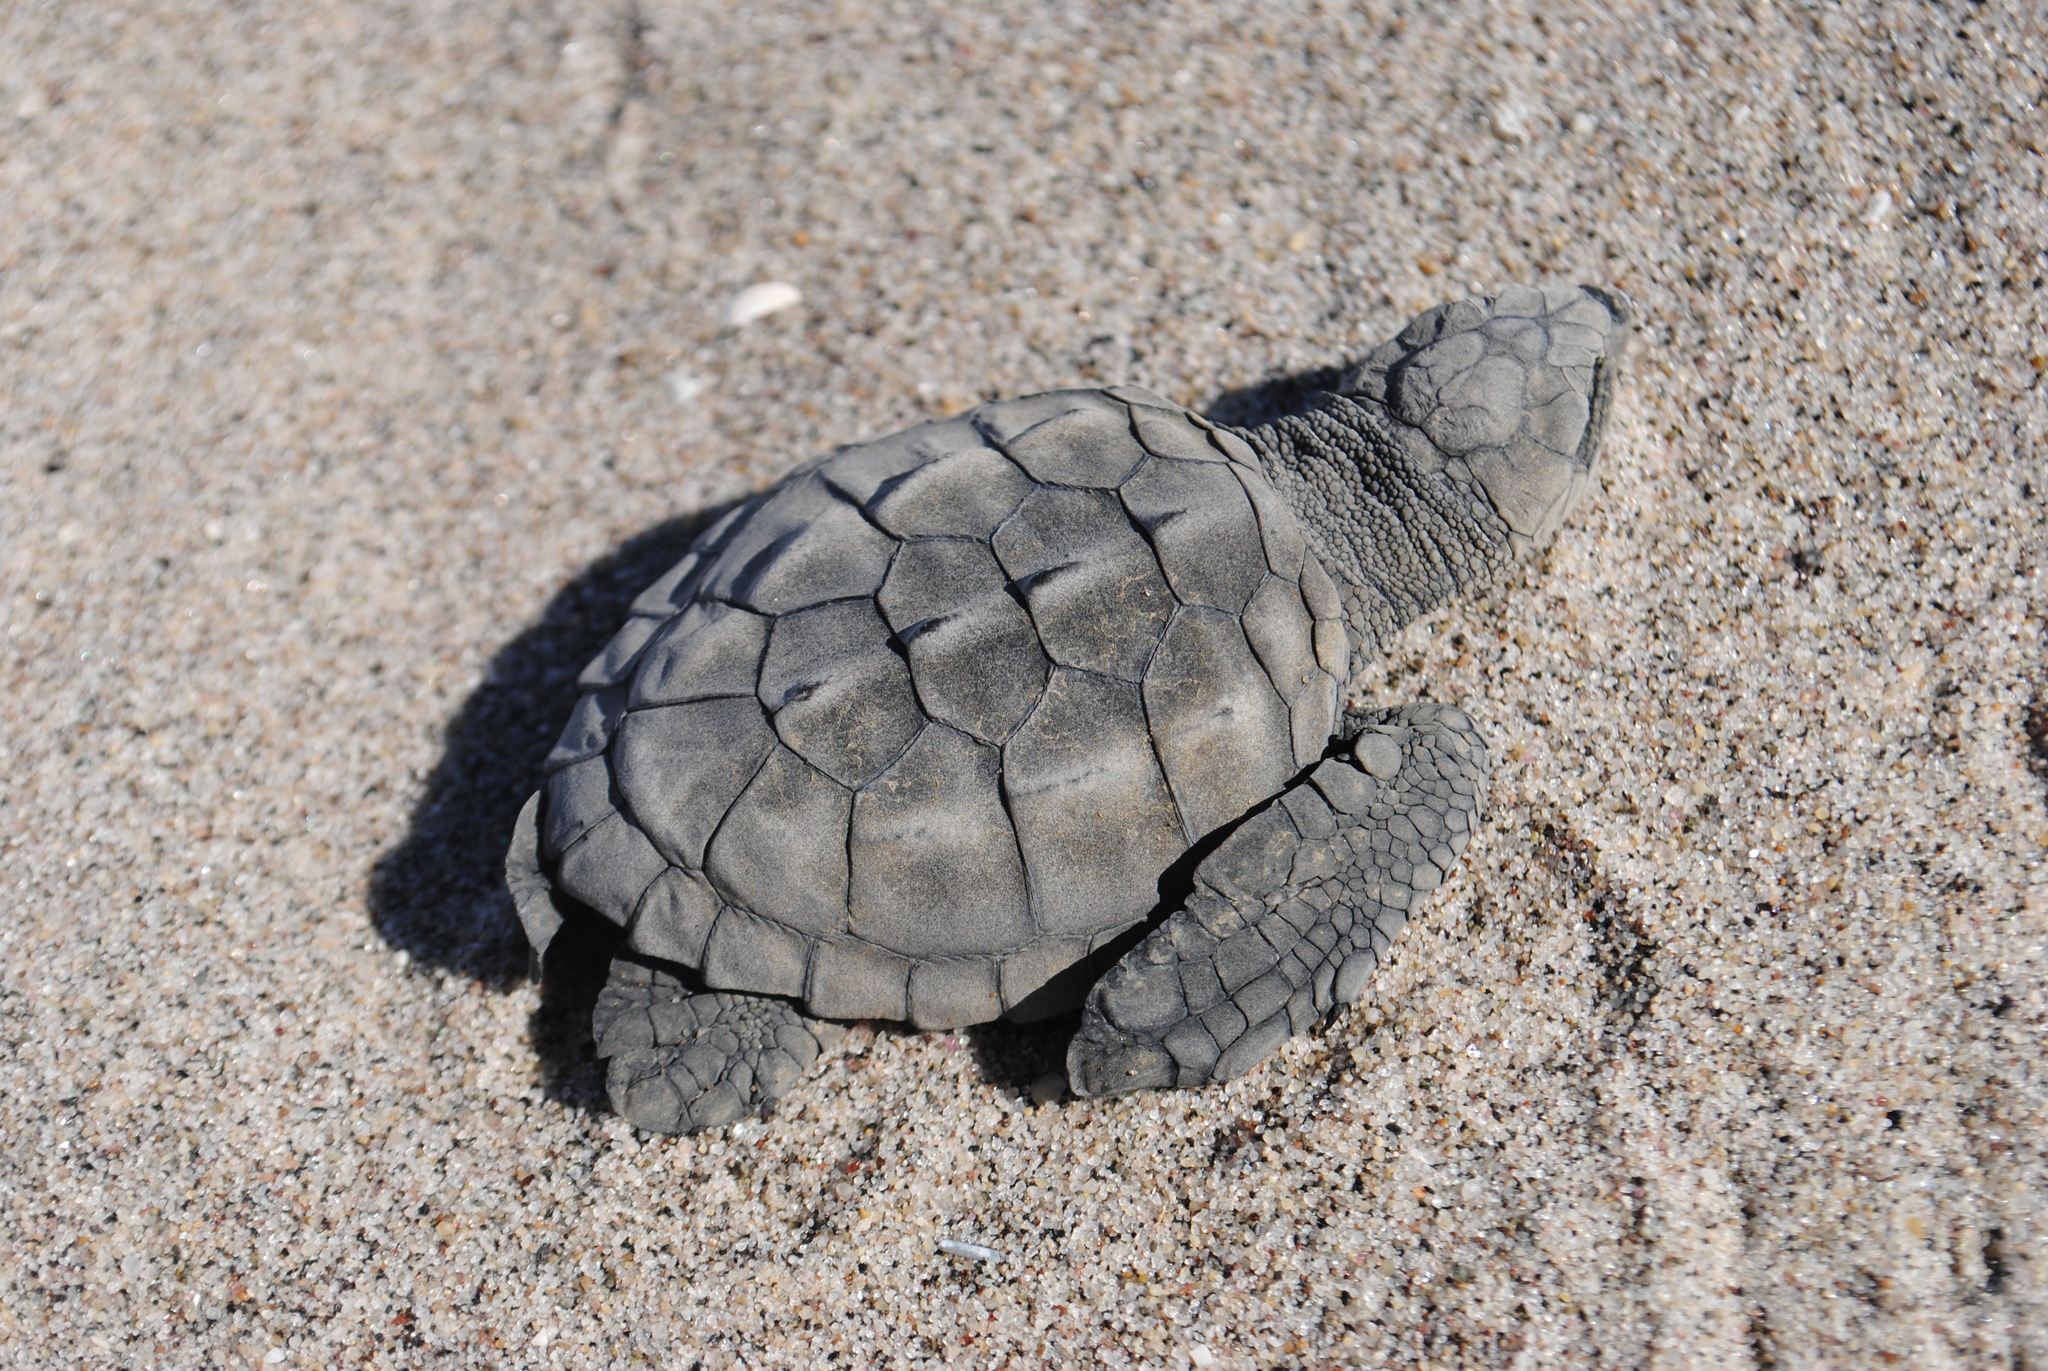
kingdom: Animalia
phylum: Chordata
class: Testudines
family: Cheloniidae
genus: Lepidochelys
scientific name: Lepidochelys kempii
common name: Kemp's ridley turtle
